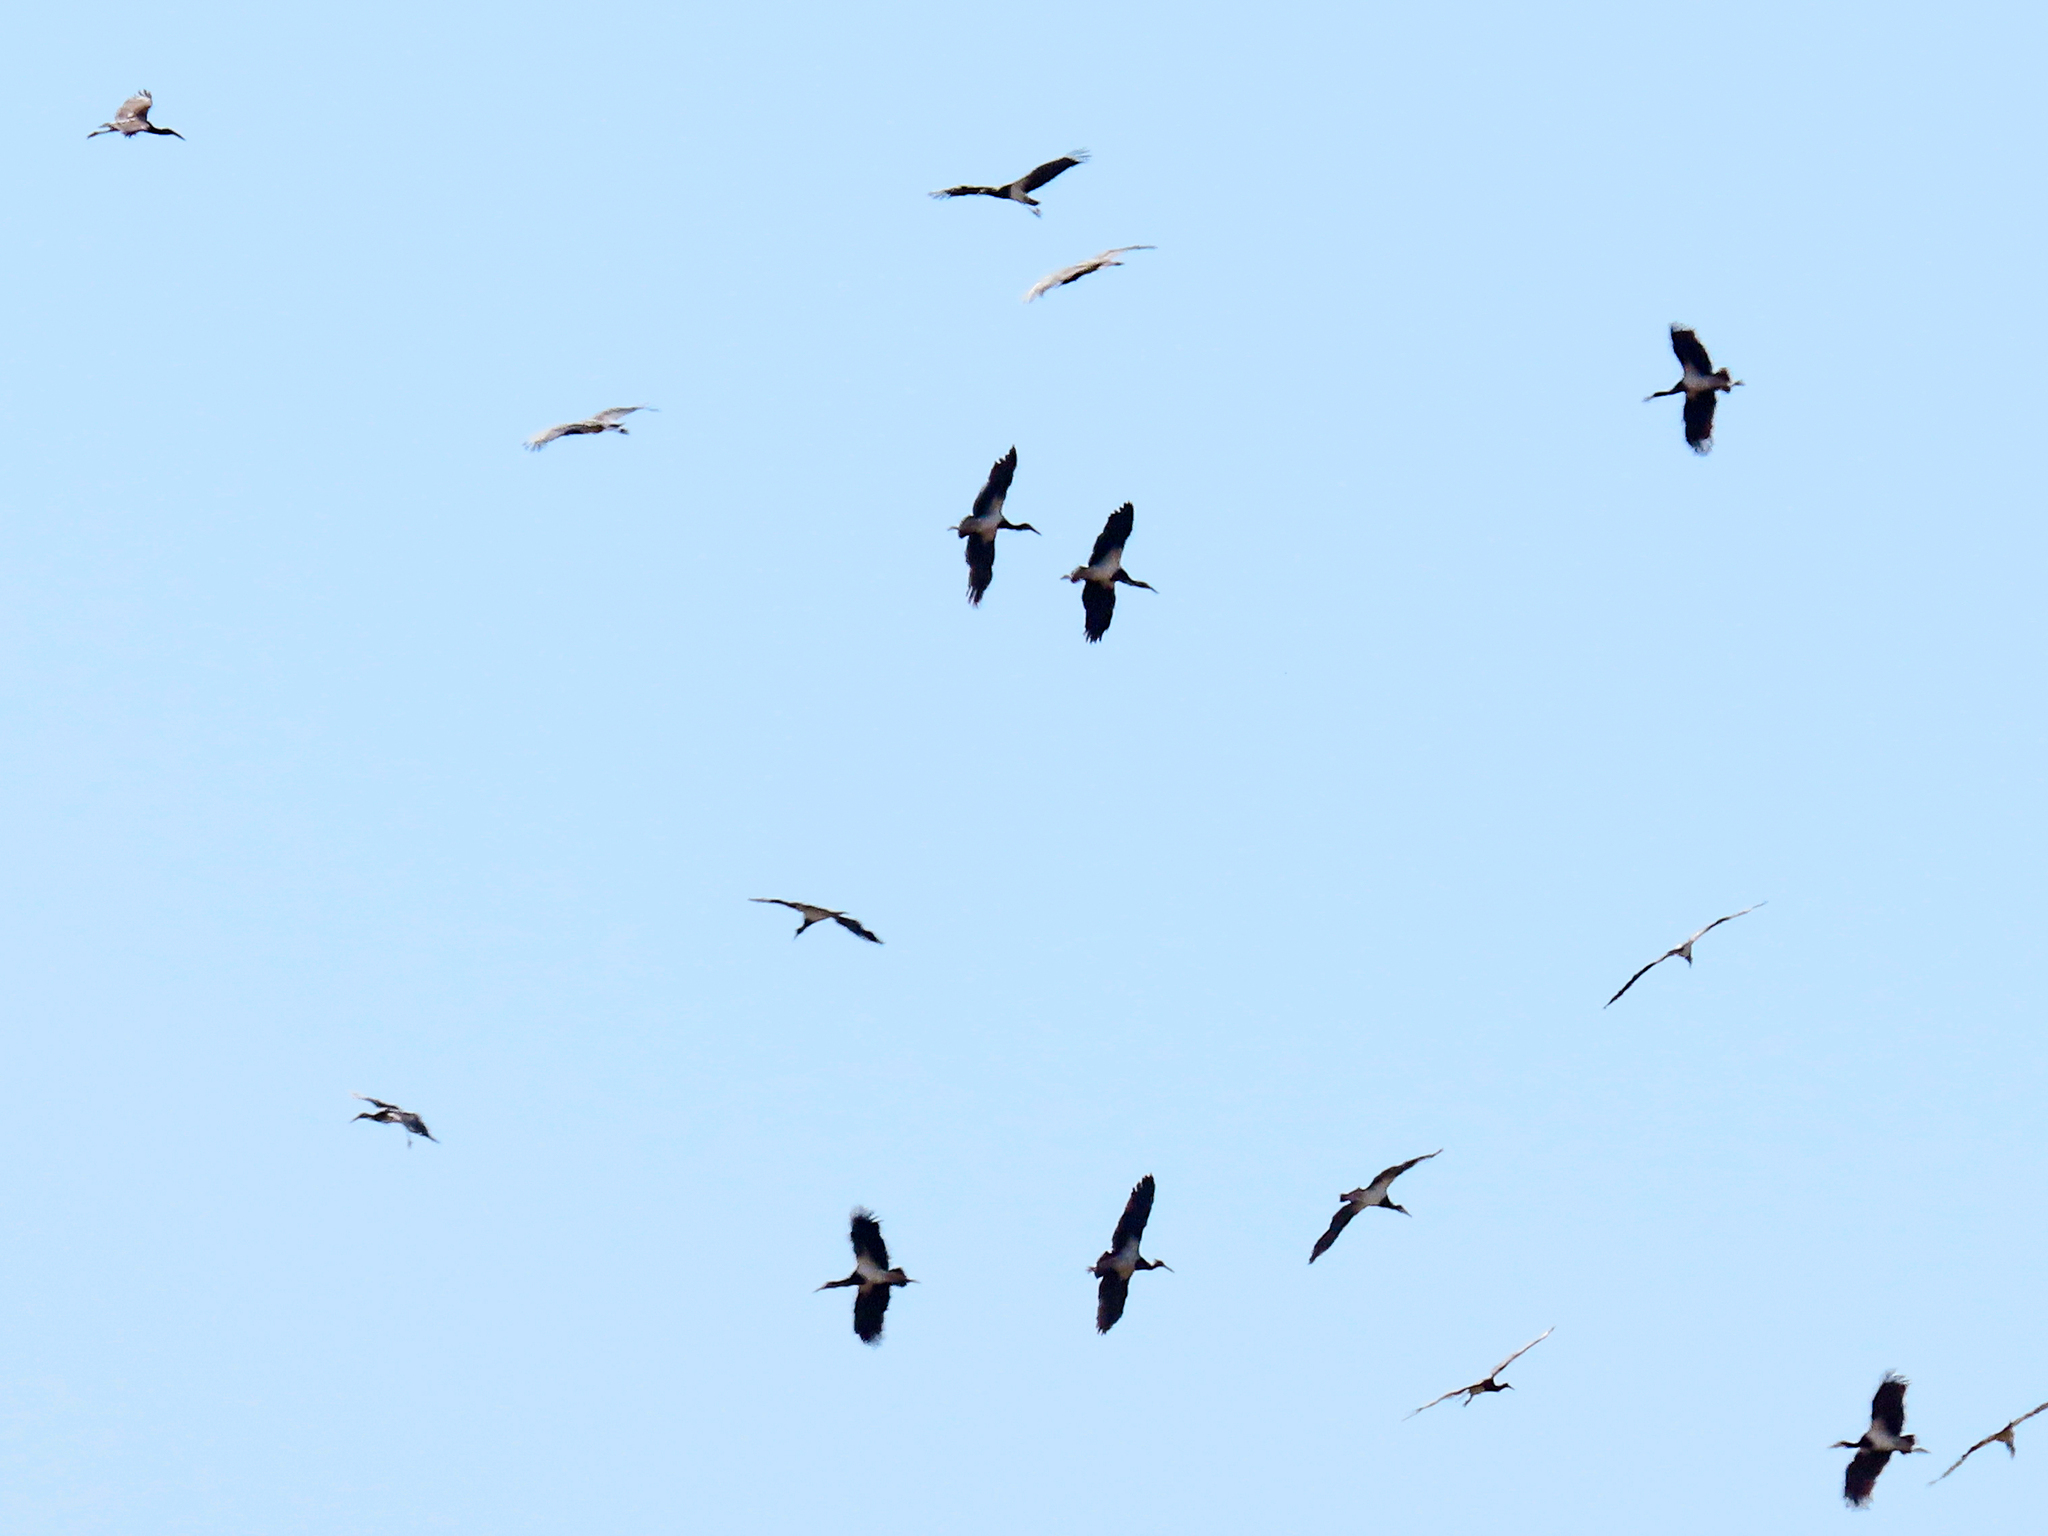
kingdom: Animalia
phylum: Chordata
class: Aves
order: Ciconiiformes
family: Ciconiidae
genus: Ciconia
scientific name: Ciconia abdimii
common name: Abdim's stork
